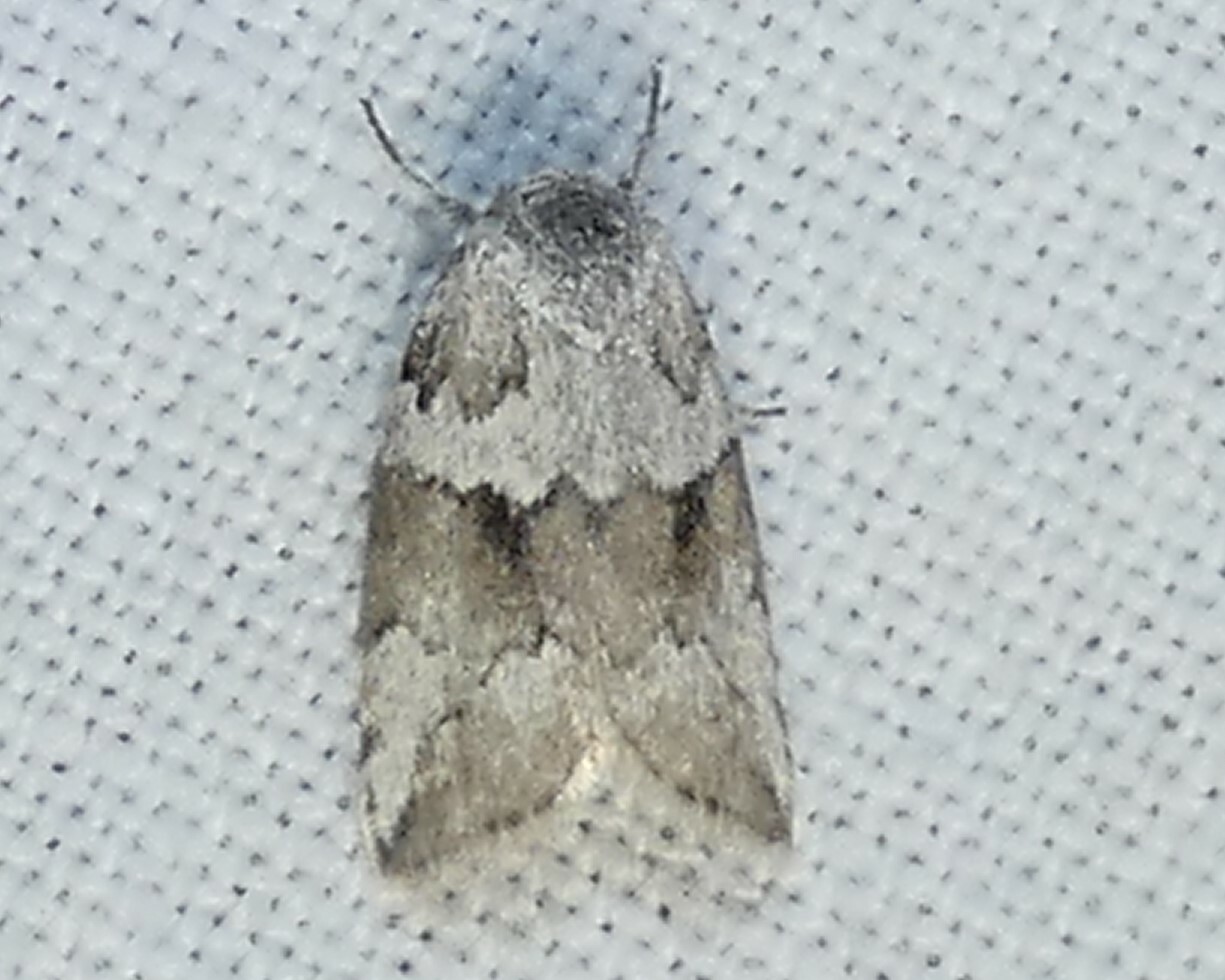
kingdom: Animalia
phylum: Arthropoda
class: Insecta
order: Lepidoptera
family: Nolidae
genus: Afrida
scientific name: Afrida ydatodes
